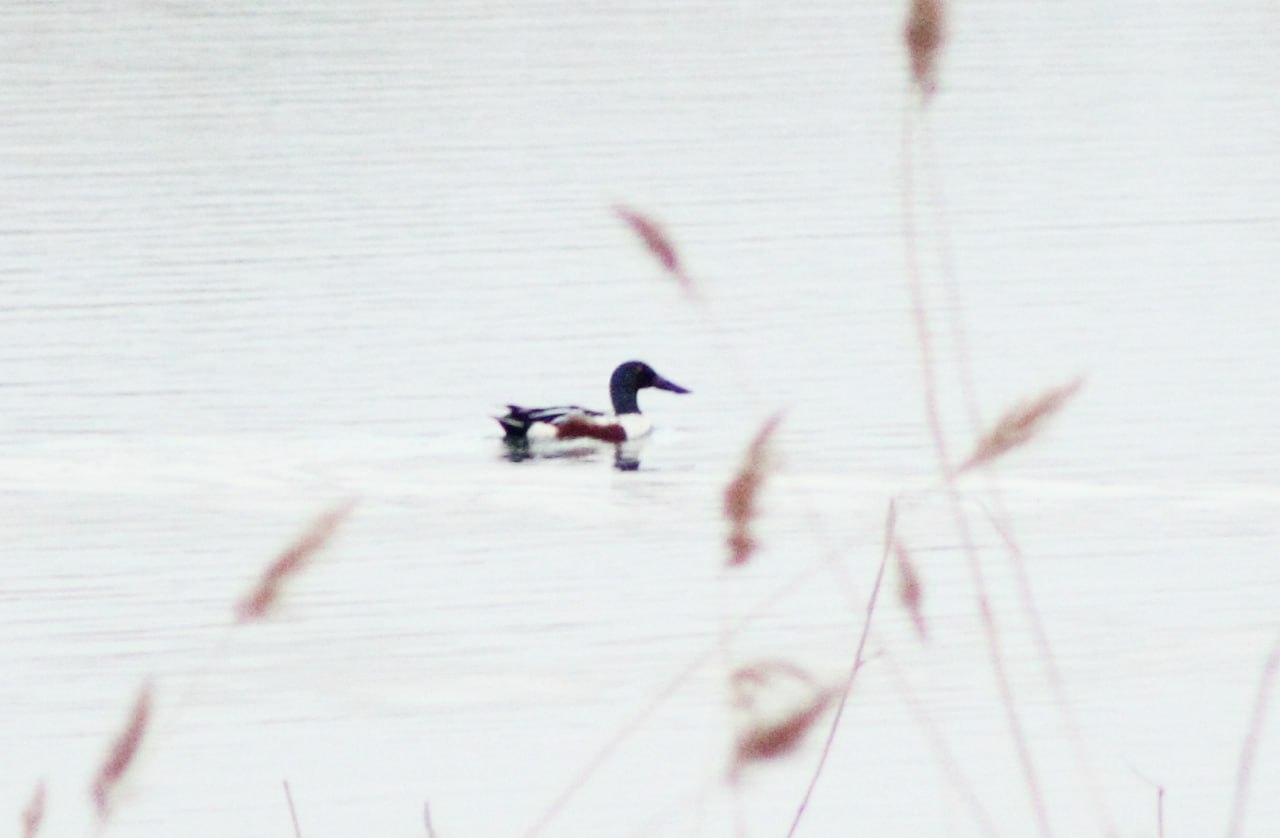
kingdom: Animalia
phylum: Chordata
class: Aves
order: Anseriformes
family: Anatidae
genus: Spatula
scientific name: Spatula clypeata
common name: Northern shoveler
